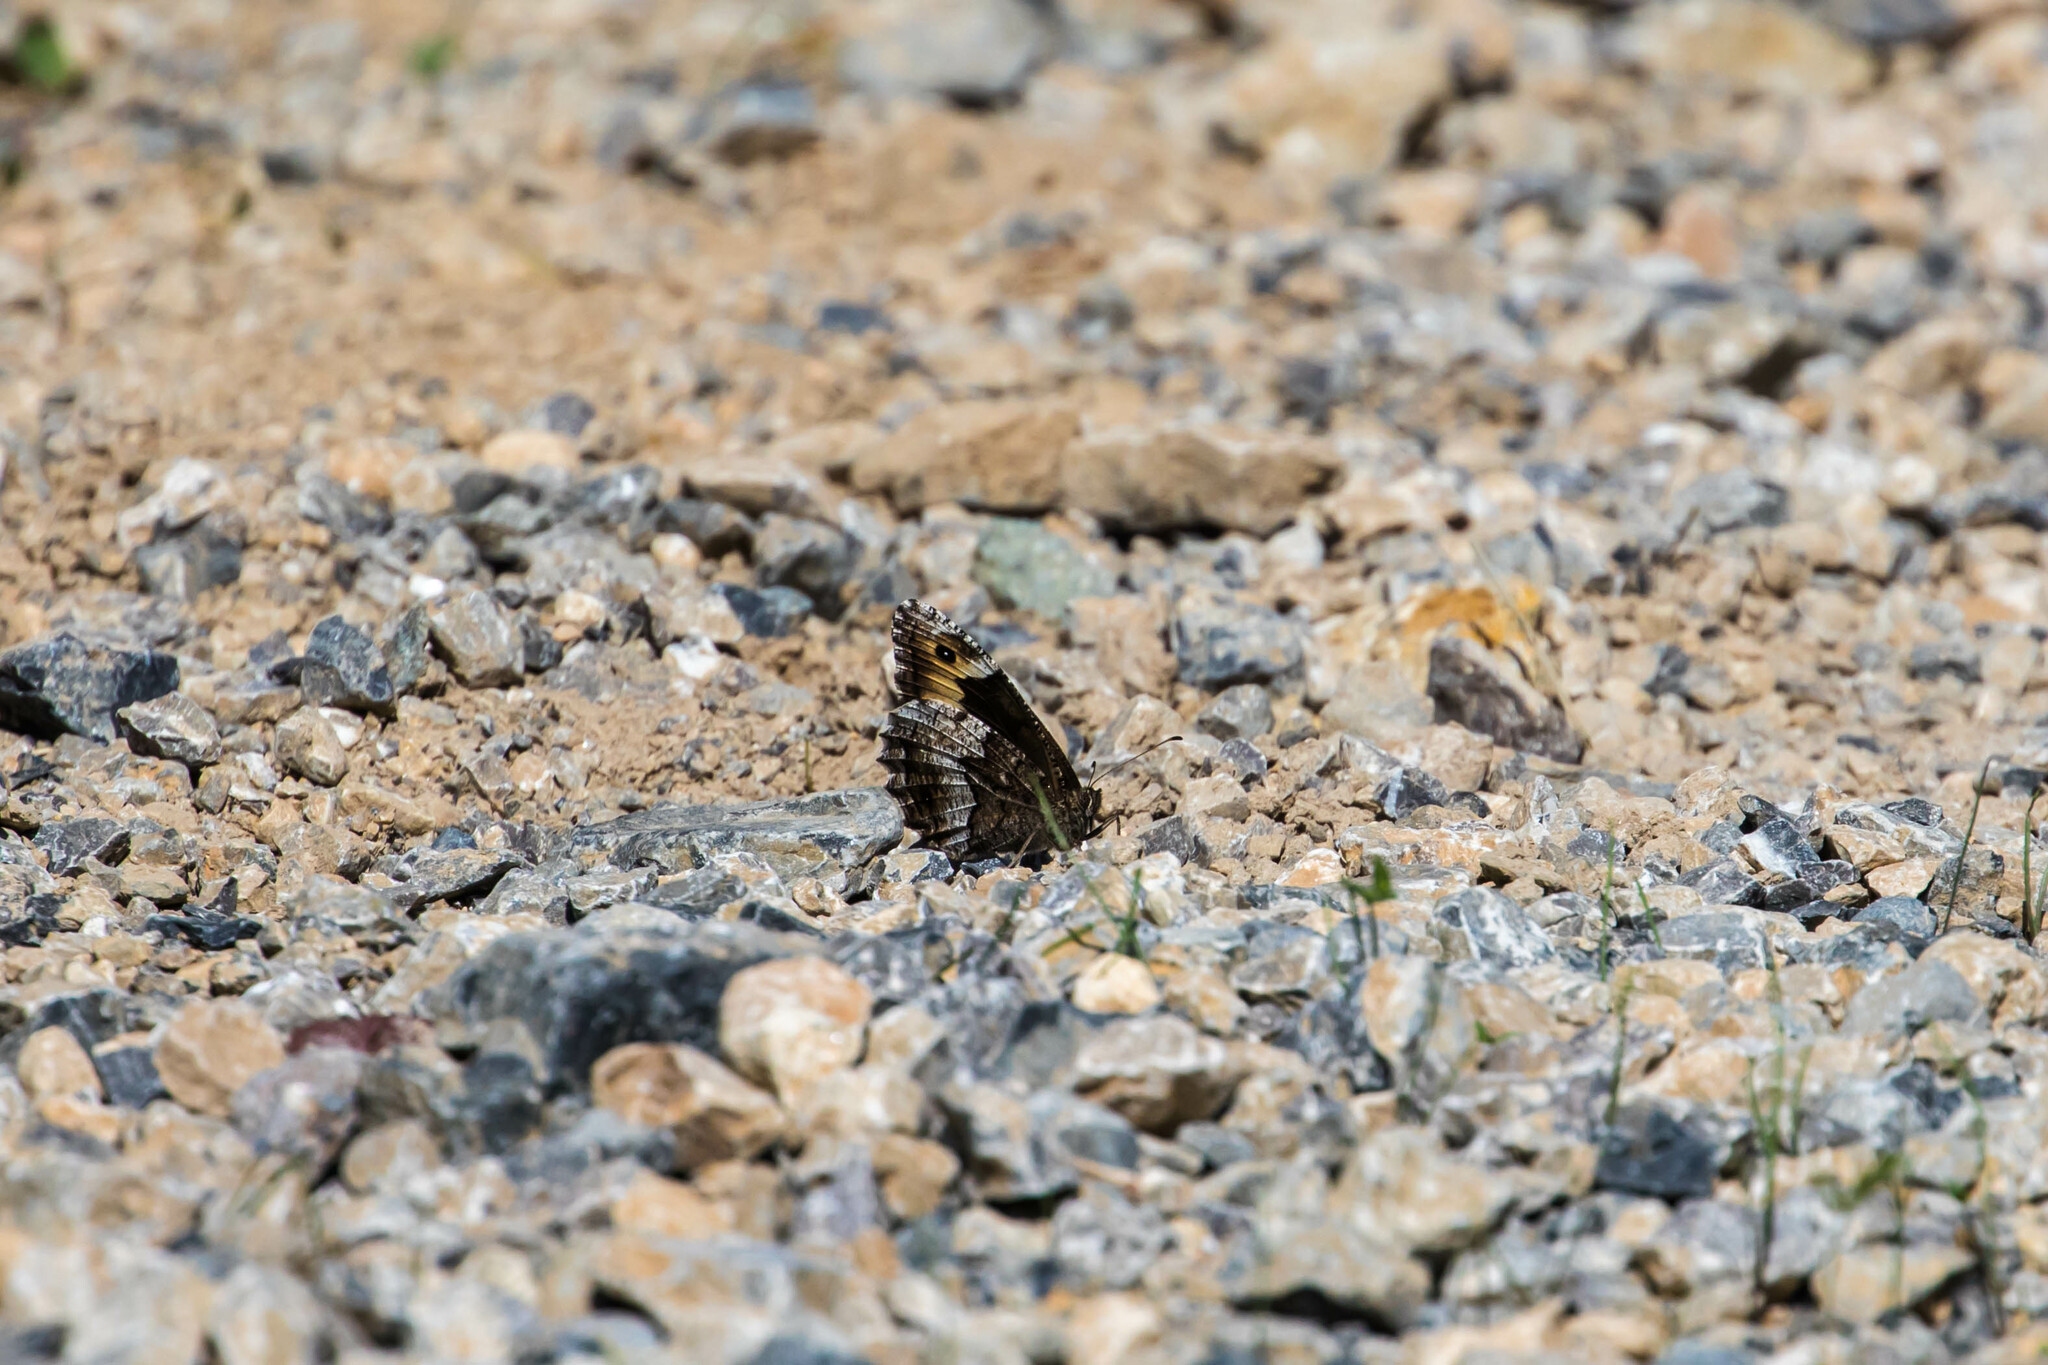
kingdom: Animalia
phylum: Arthropoda
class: Insecta
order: Lepidoptera
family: Nymphalidae
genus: Hipparchia
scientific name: Hipparchia fagi
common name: Woodland grayling
